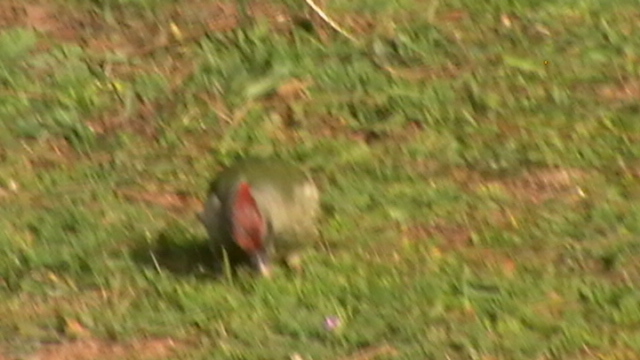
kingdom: Animalia
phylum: Chordata
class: Aves
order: Piciformes
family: Picidae
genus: Picus
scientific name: Picus sharpei
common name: Iberian green woodpecker
